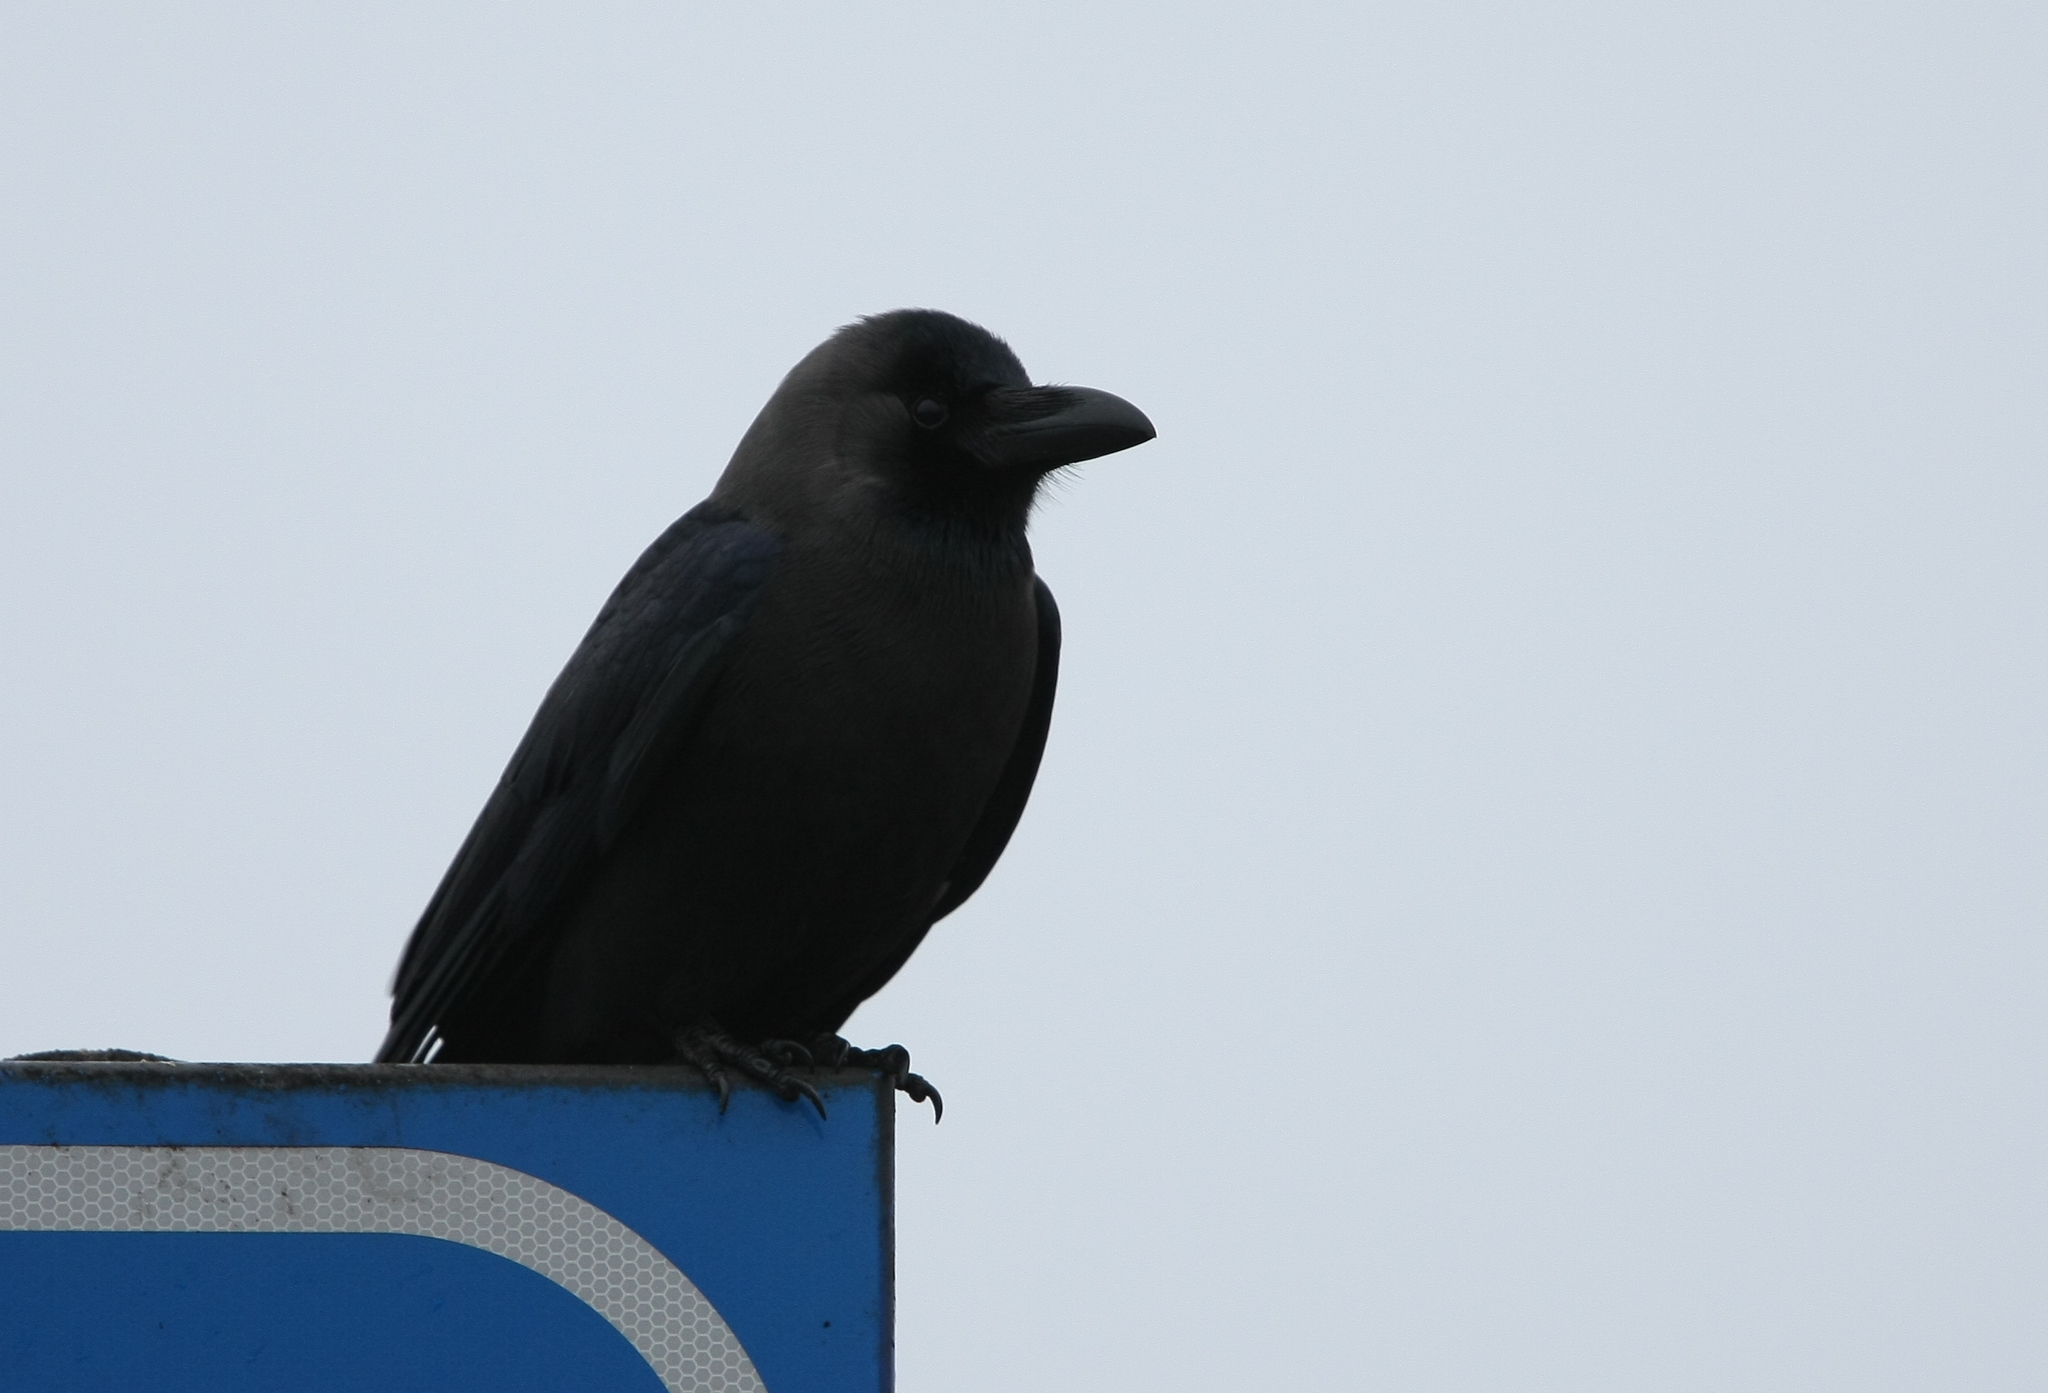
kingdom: Animalia
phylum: Chordata
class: Aves
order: Passeriformes
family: Corvidae
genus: Corvus
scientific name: Corvus splendens
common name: House crow
